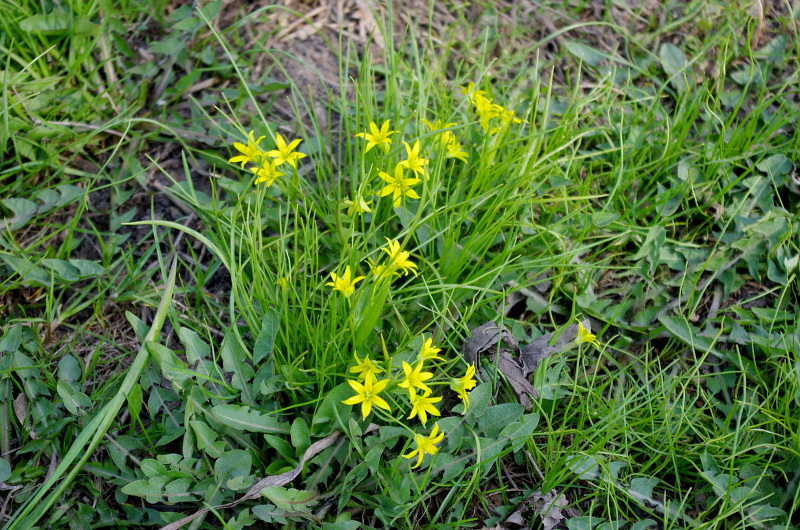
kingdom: Plantae
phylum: Tracheophyta
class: Liliopsida
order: Liliales
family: Liliaceae
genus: Gagea
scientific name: Gagea minima
